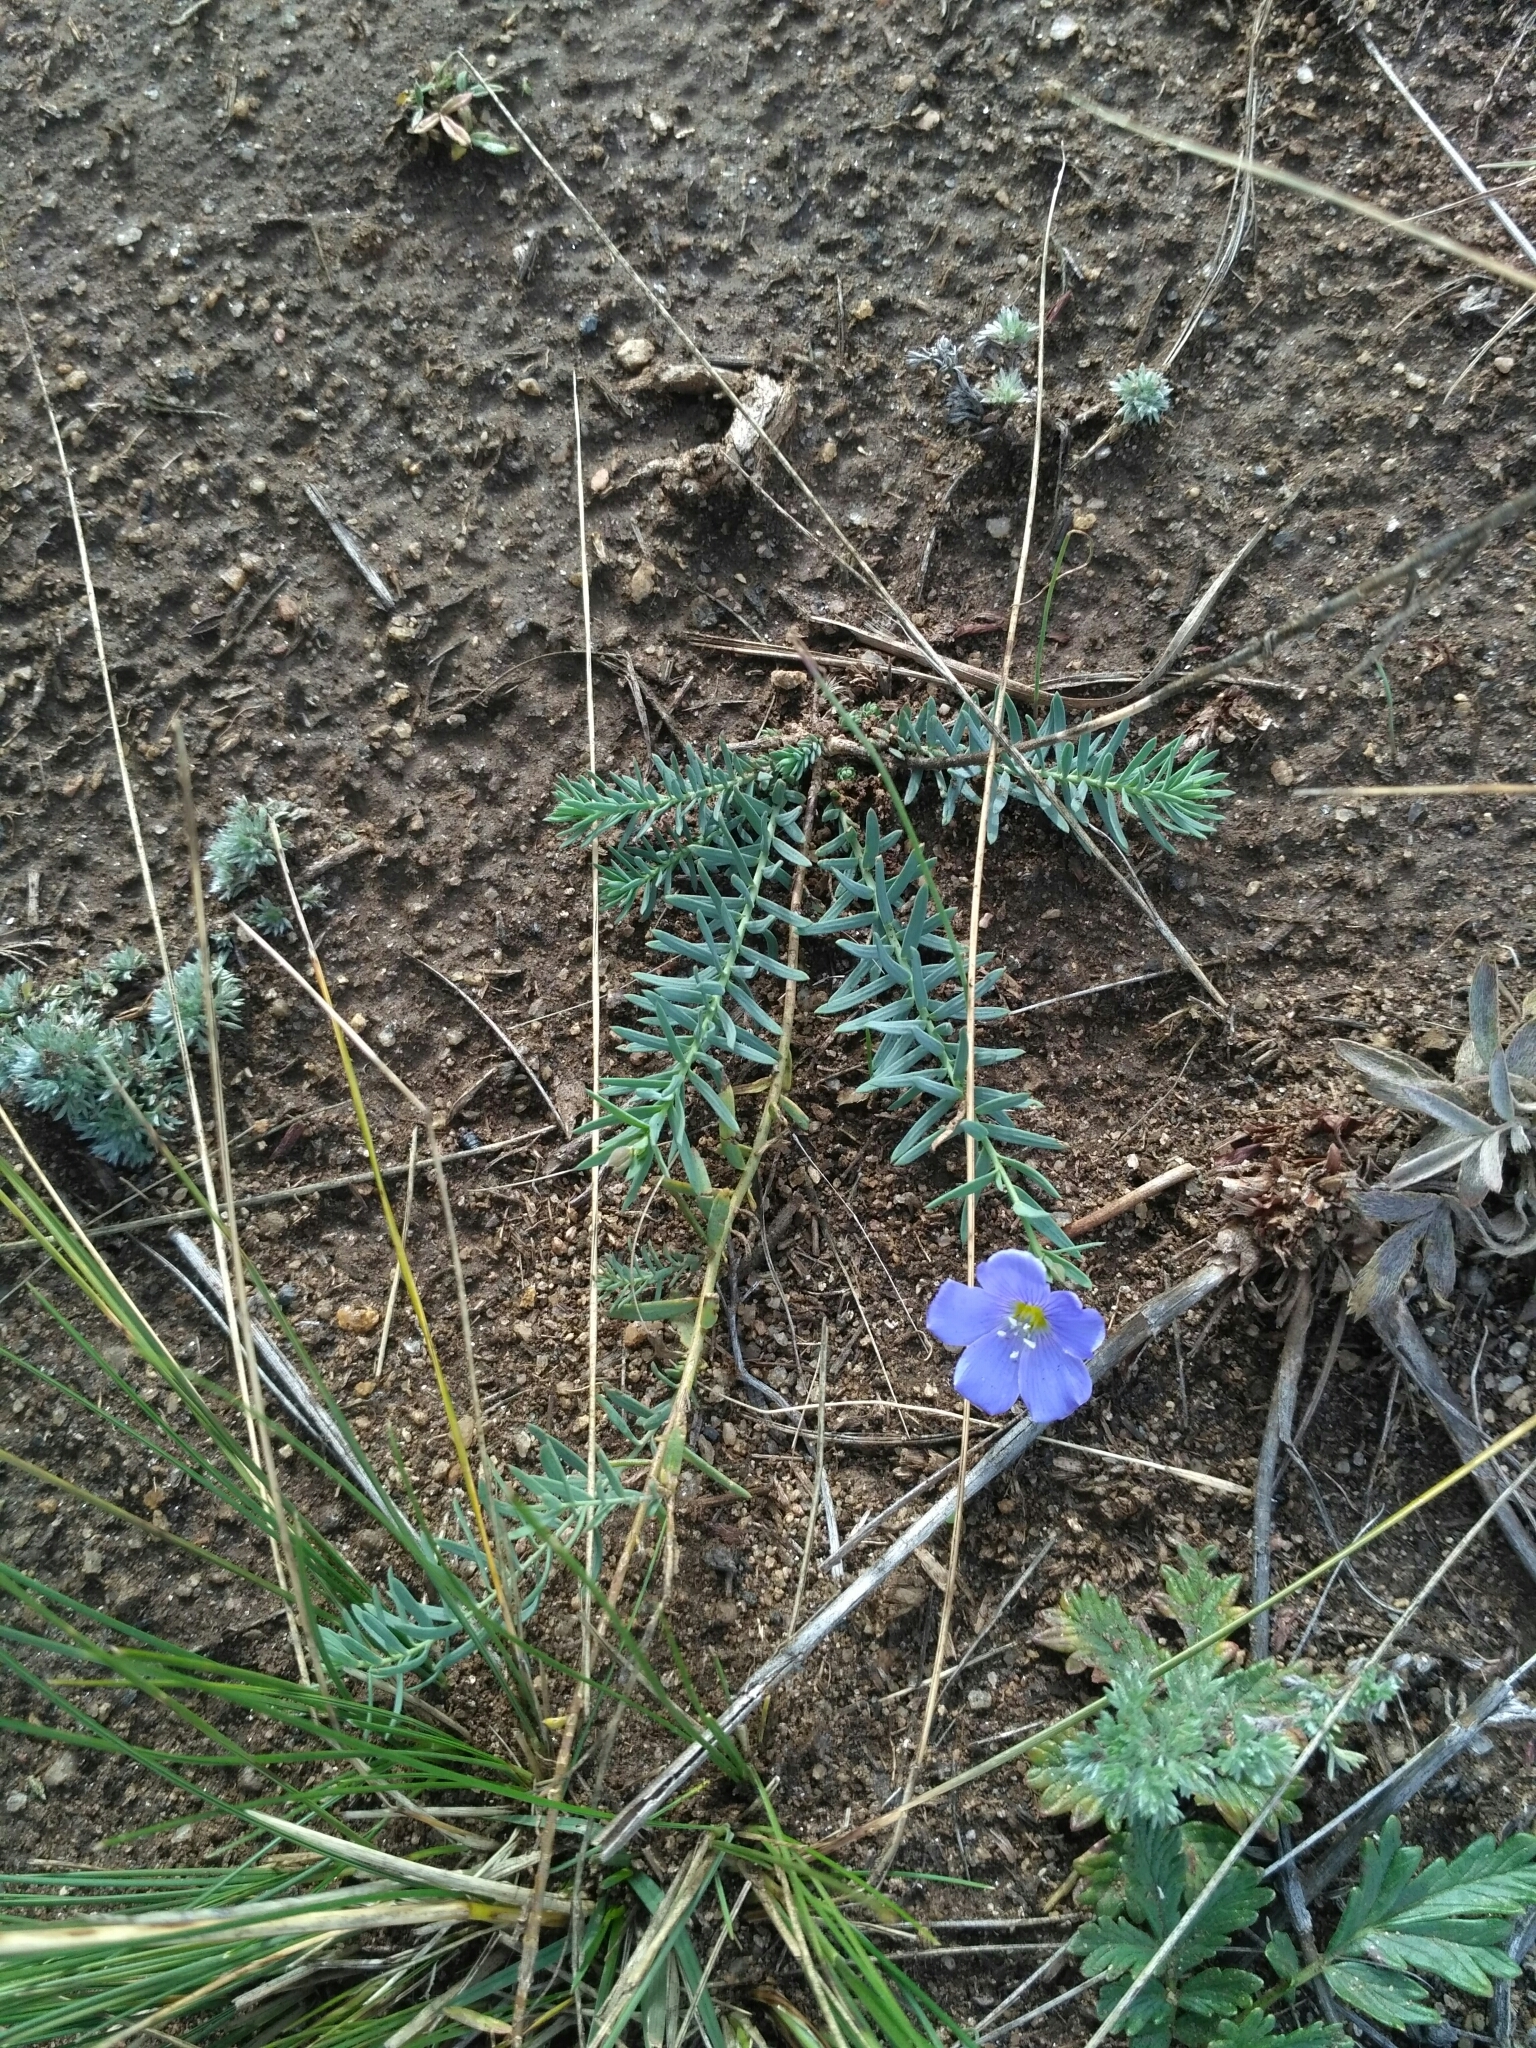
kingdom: Plantae
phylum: Tracheophyta
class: Magnoliopsida
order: Malpighiales
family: Linaceae
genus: Linum
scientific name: Linum perenne
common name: Blue flax
